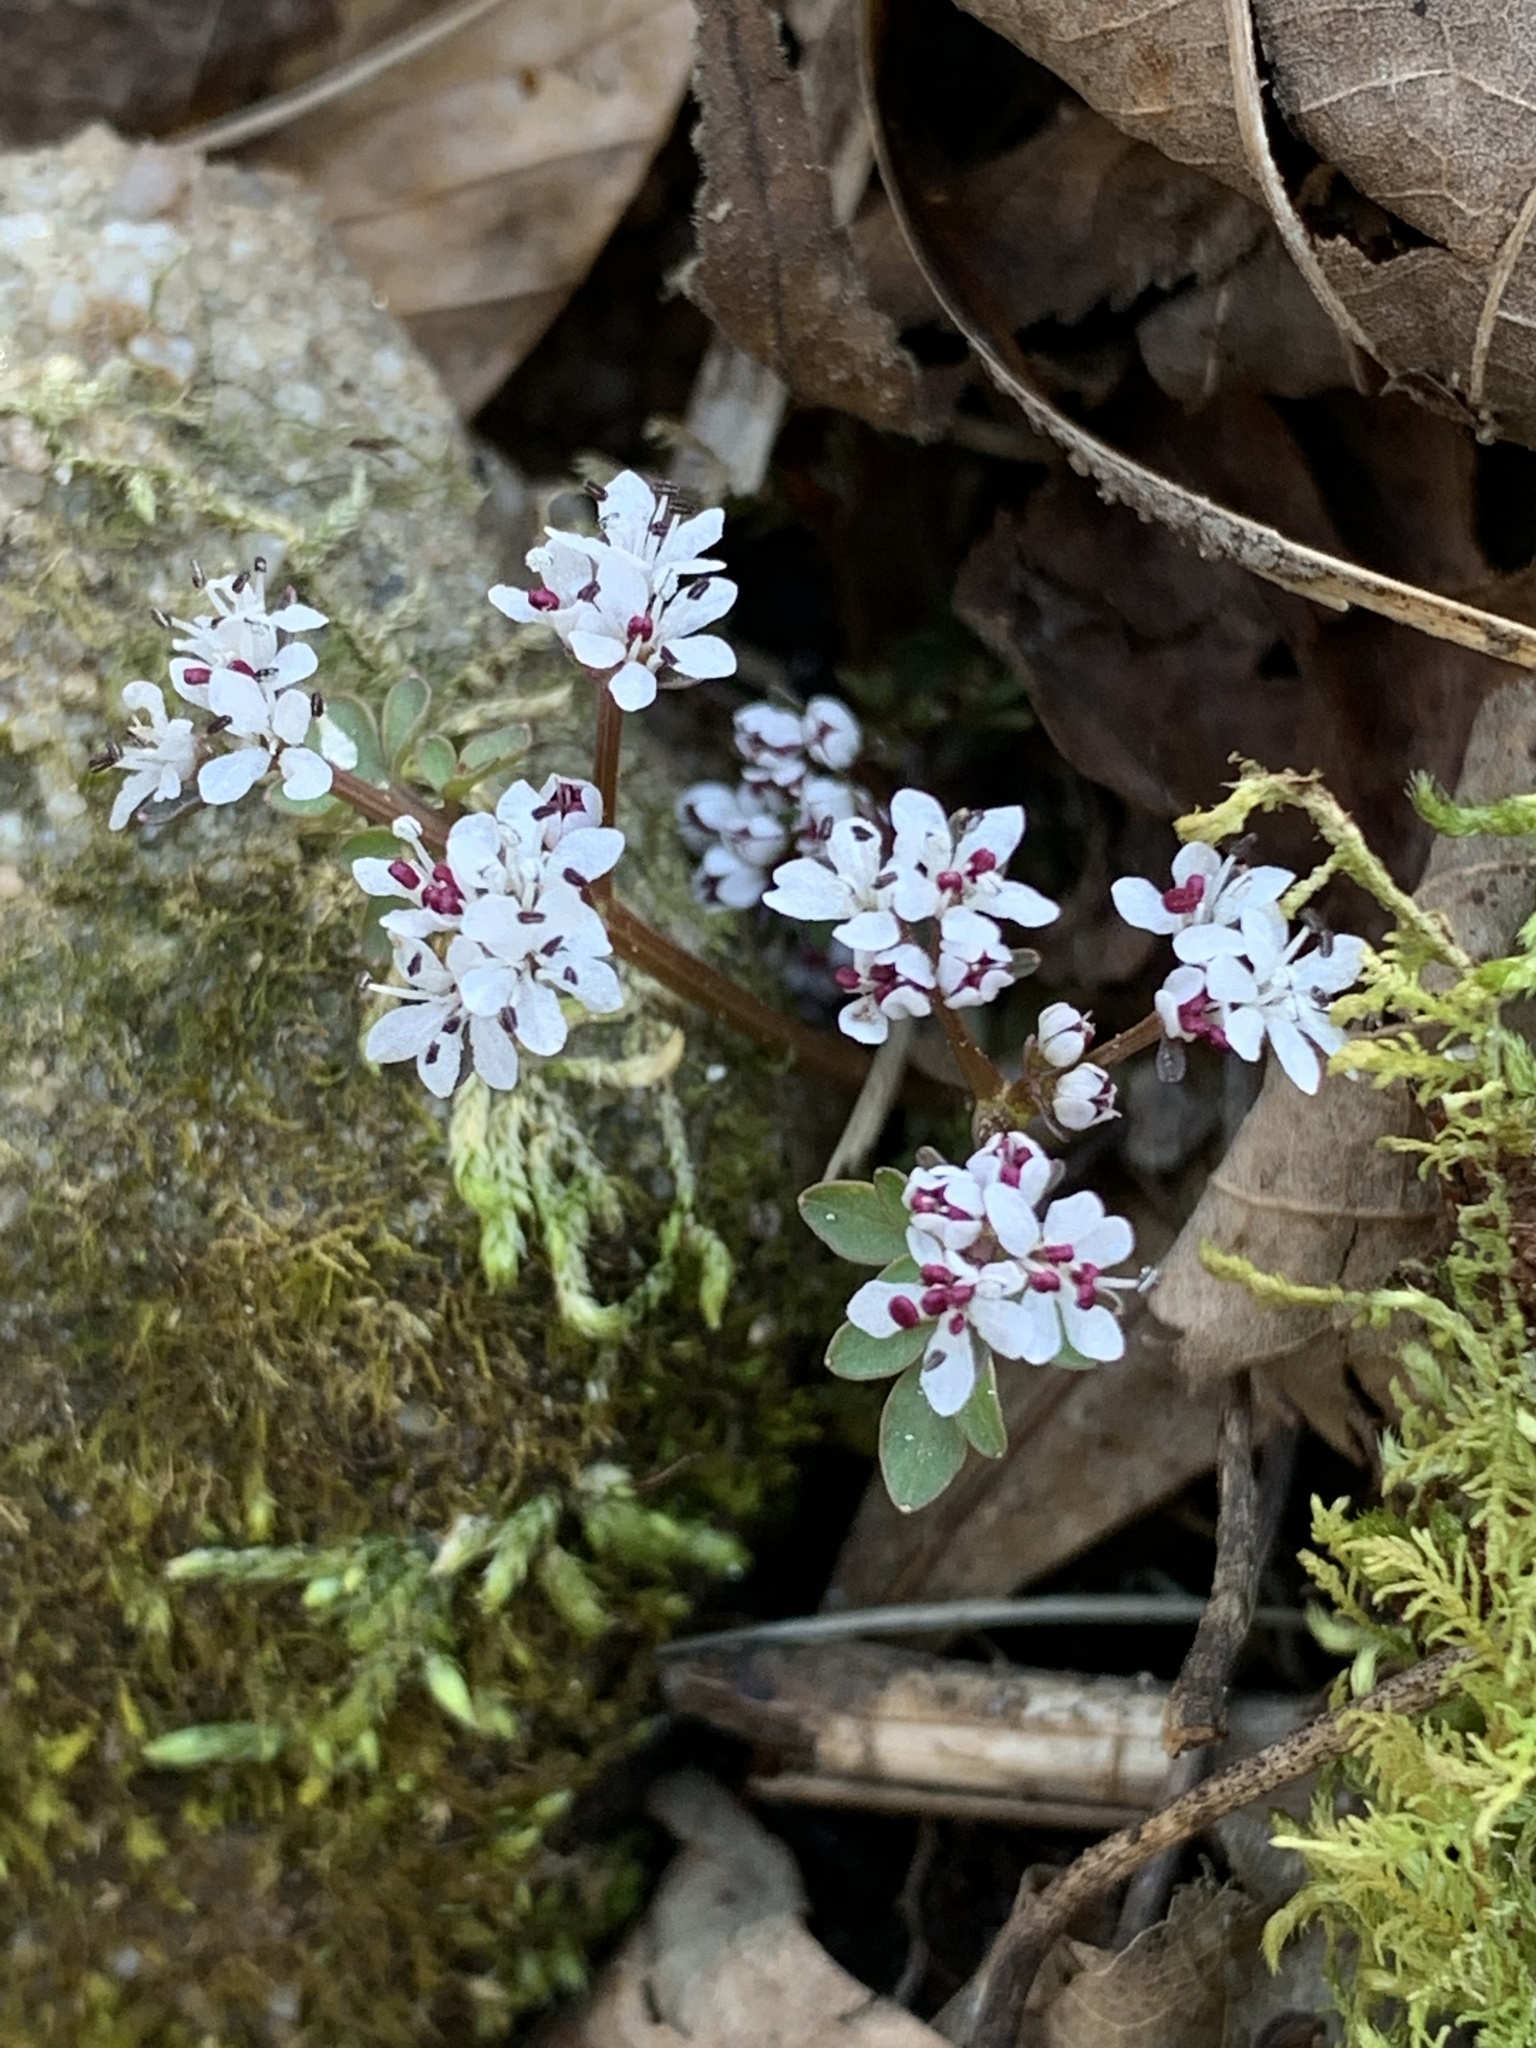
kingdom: Plantae
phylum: Tracheophyta
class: Magnoliopsida
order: Apiales
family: Apiaceae
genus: Erigenia
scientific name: Erigenia bulbosa
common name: Pepper-and-salt
